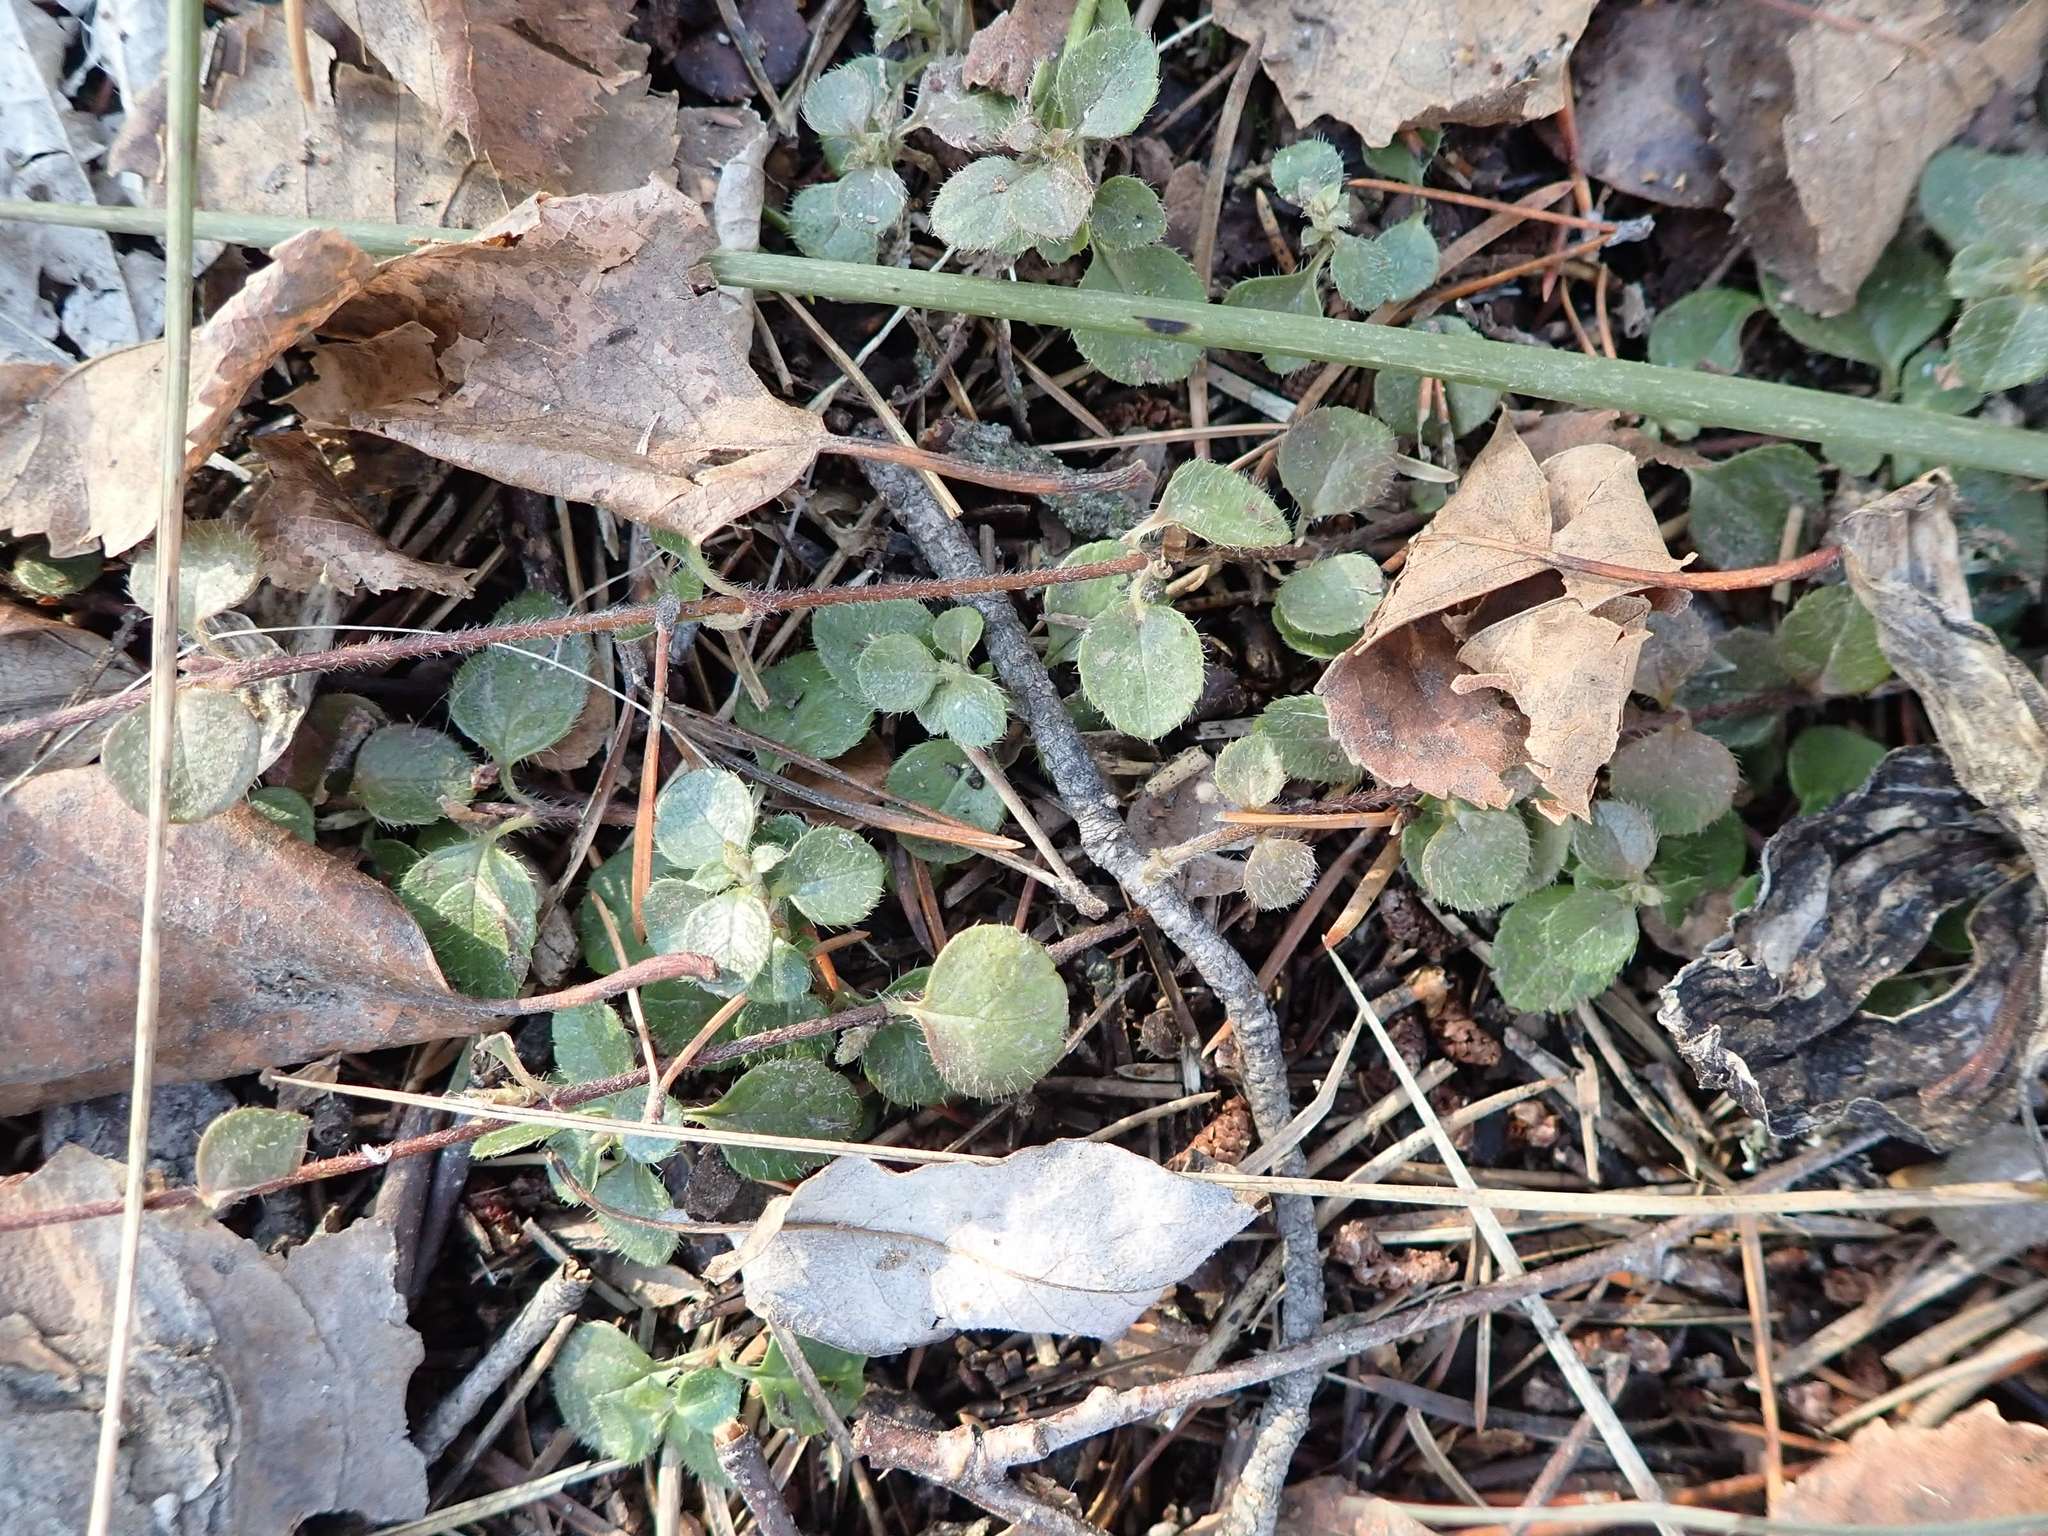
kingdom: Plantae
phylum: Tracheophyta
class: Magnoliopsida
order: Dipsacales
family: Caprifoliaceae
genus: Linnaea
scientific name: Linnaea borealis
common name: Twinflower
